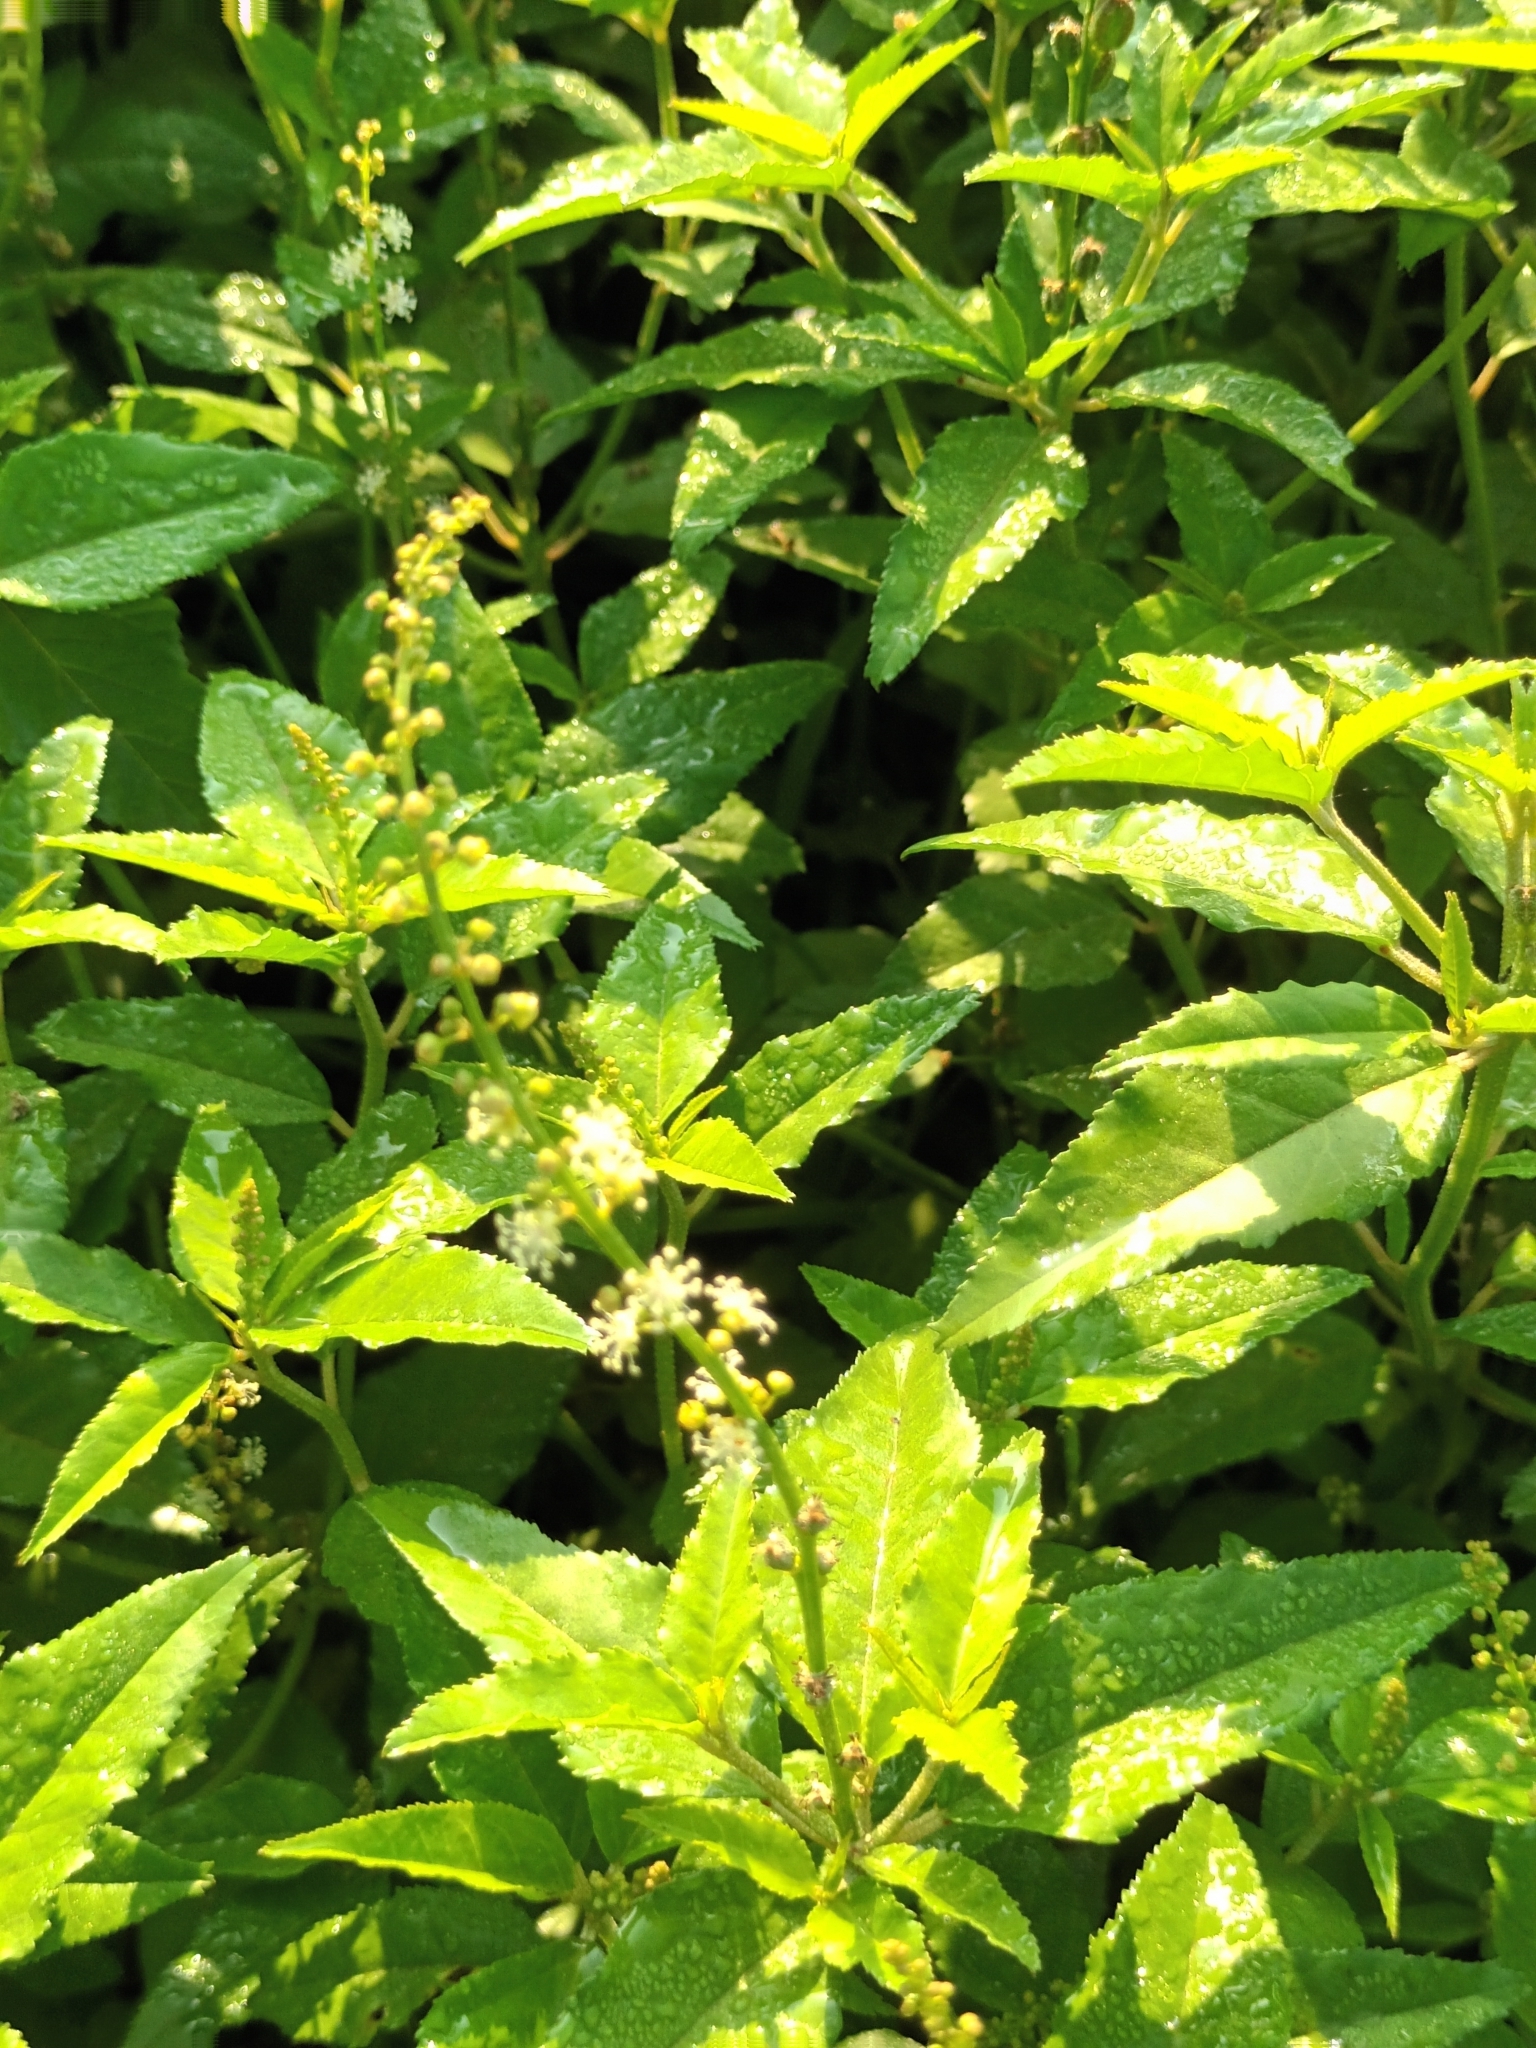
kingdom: Plantae
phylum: Tracheophyta
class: Magnoliopsida
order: Malpighiales
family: Euphorbiaceae
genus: Croton
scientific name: Croton bonplandianus
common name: Bonpland's croton
